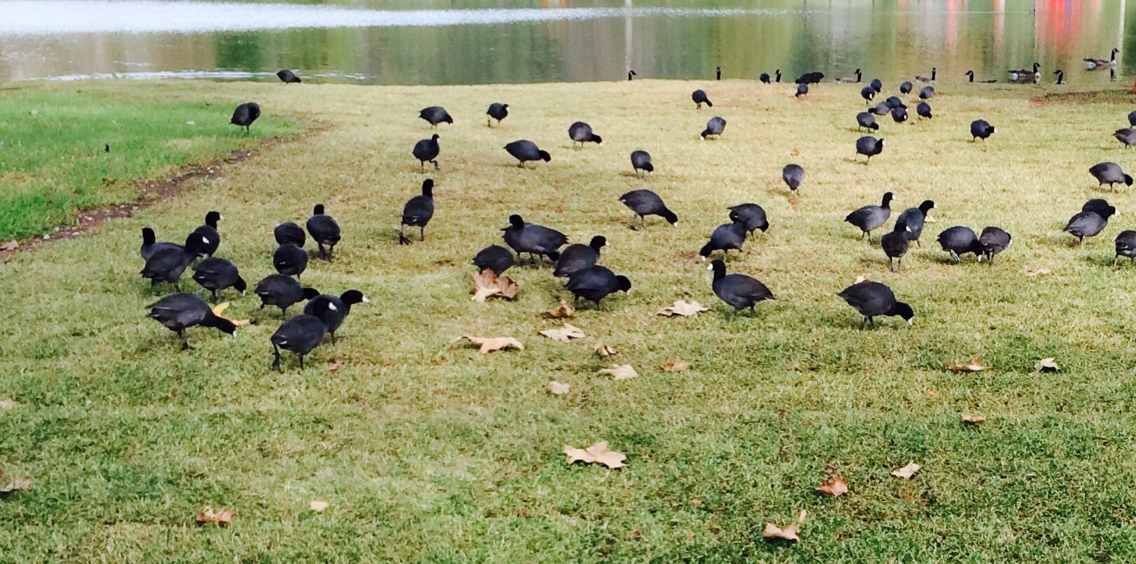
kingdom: Animalia
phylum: Chordata
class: Aves
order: Gruiformes
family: Rallidae
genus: Fulica
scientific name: Fulica americana
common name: American coot
